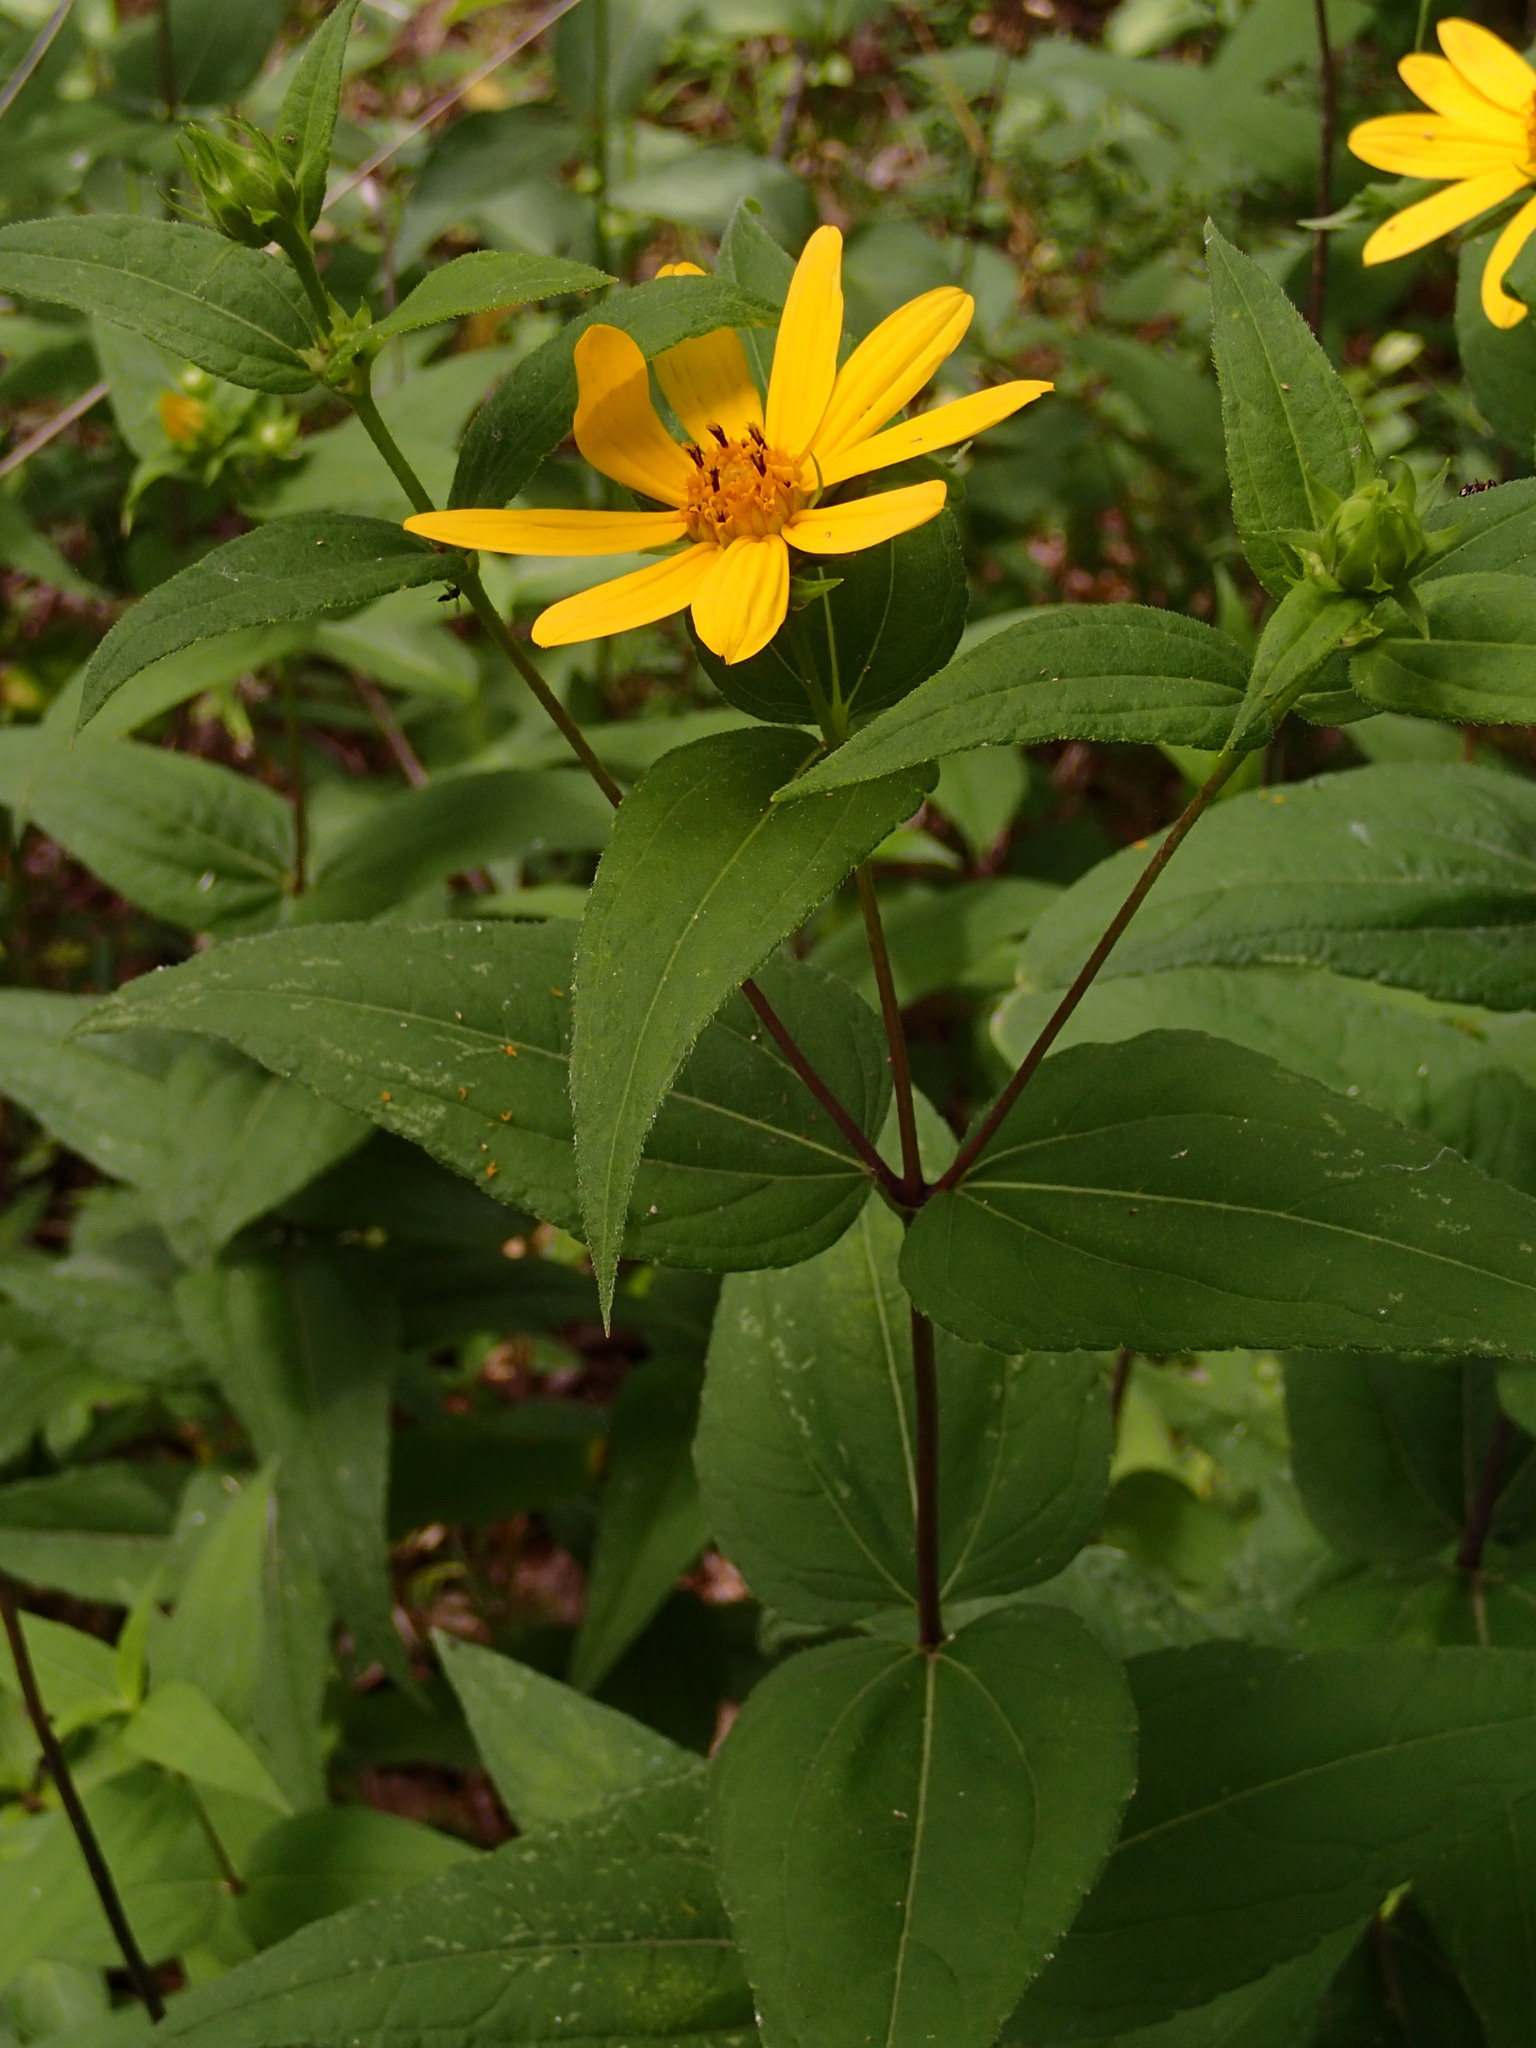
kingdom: Plantae
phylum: Tracheophyta
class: Magnoliopsida
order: Asterales
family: Asteraceae
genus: Helianthus
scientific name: Helianthus divaricatus
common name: Divergent sunflower
